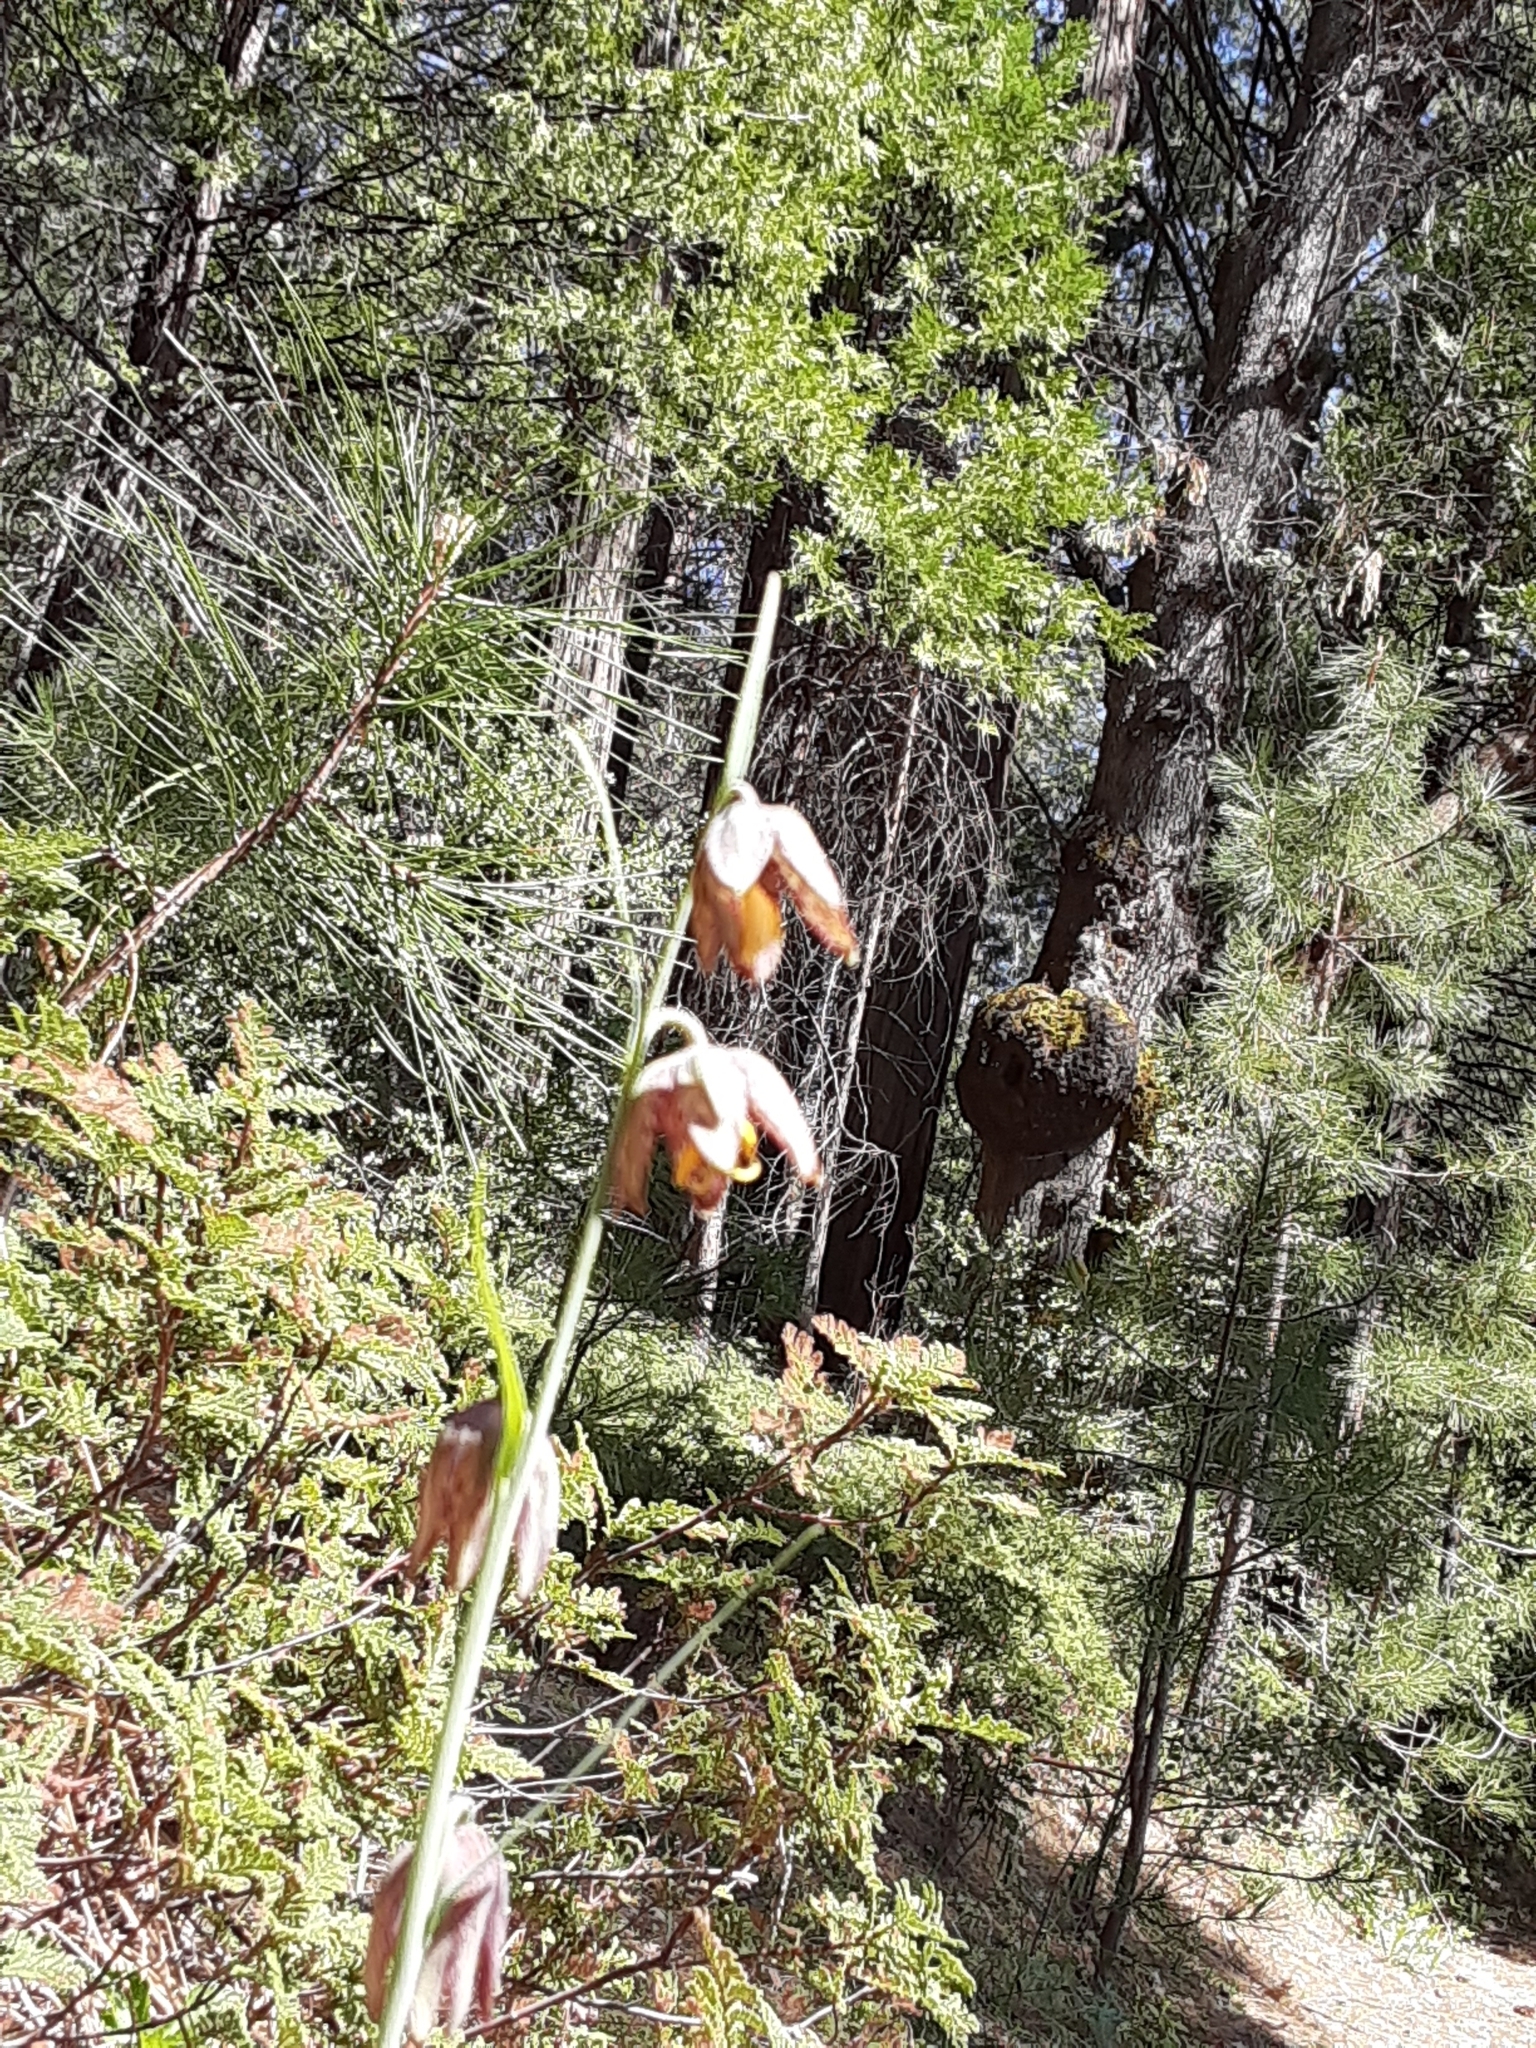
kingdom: Plantae
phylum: Tracheophyta
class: Liliopsida
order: Liliales
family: Liliaceae
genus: Fritillaria
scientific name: Fritillaria atropurpurea
